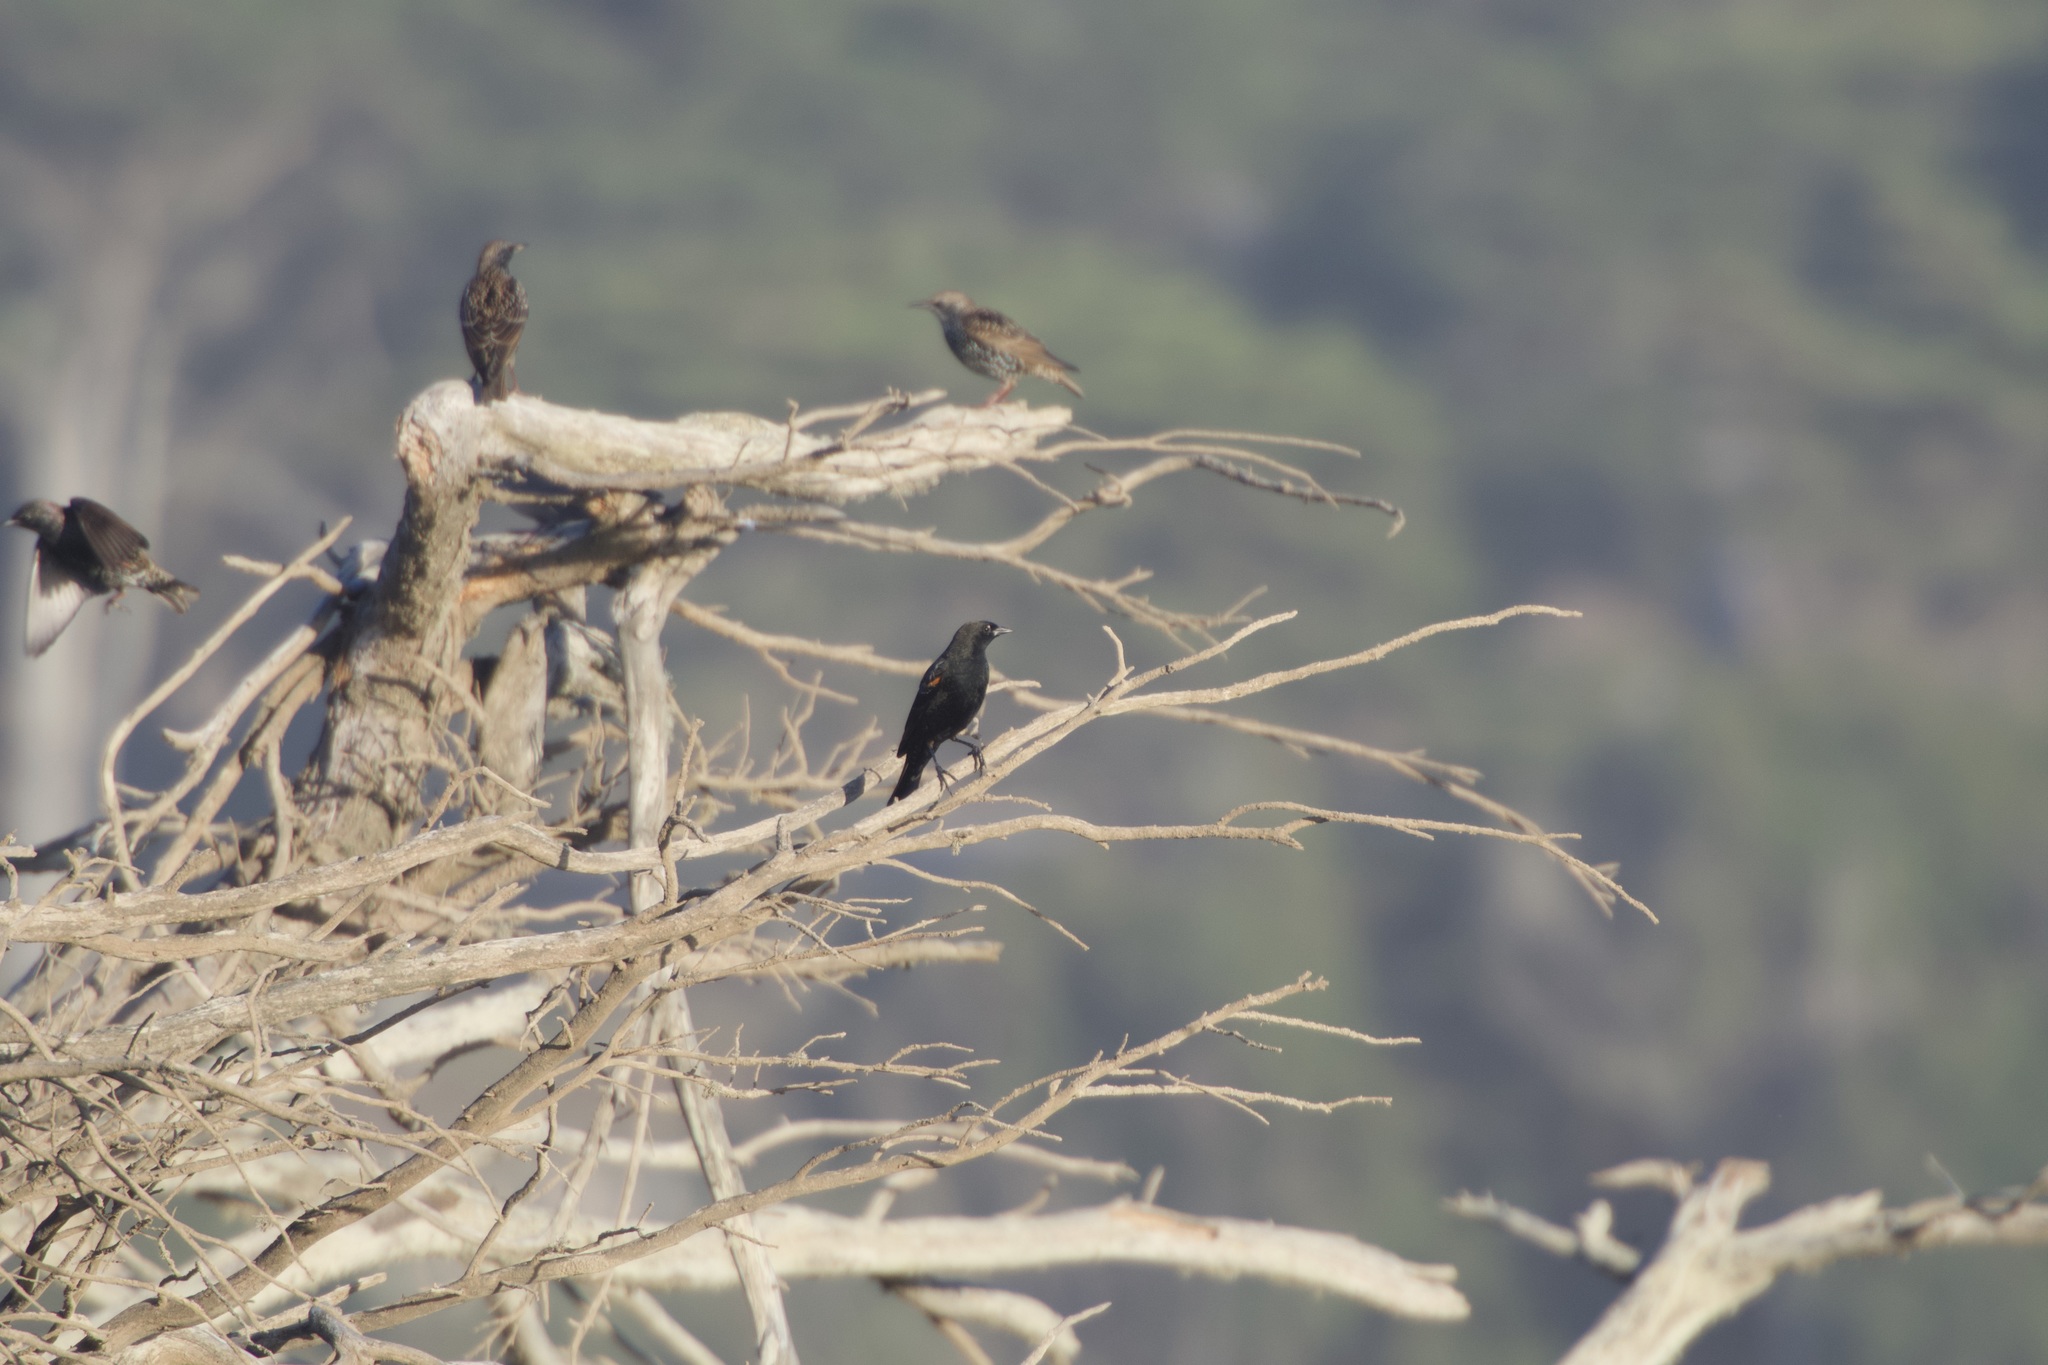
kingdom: Animalia
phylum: Chordata
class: Aves
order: Passeriformes
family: Icteridae
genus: Agelaius
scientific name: Agelaius phoeniceus
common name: Red-winged blackbird
